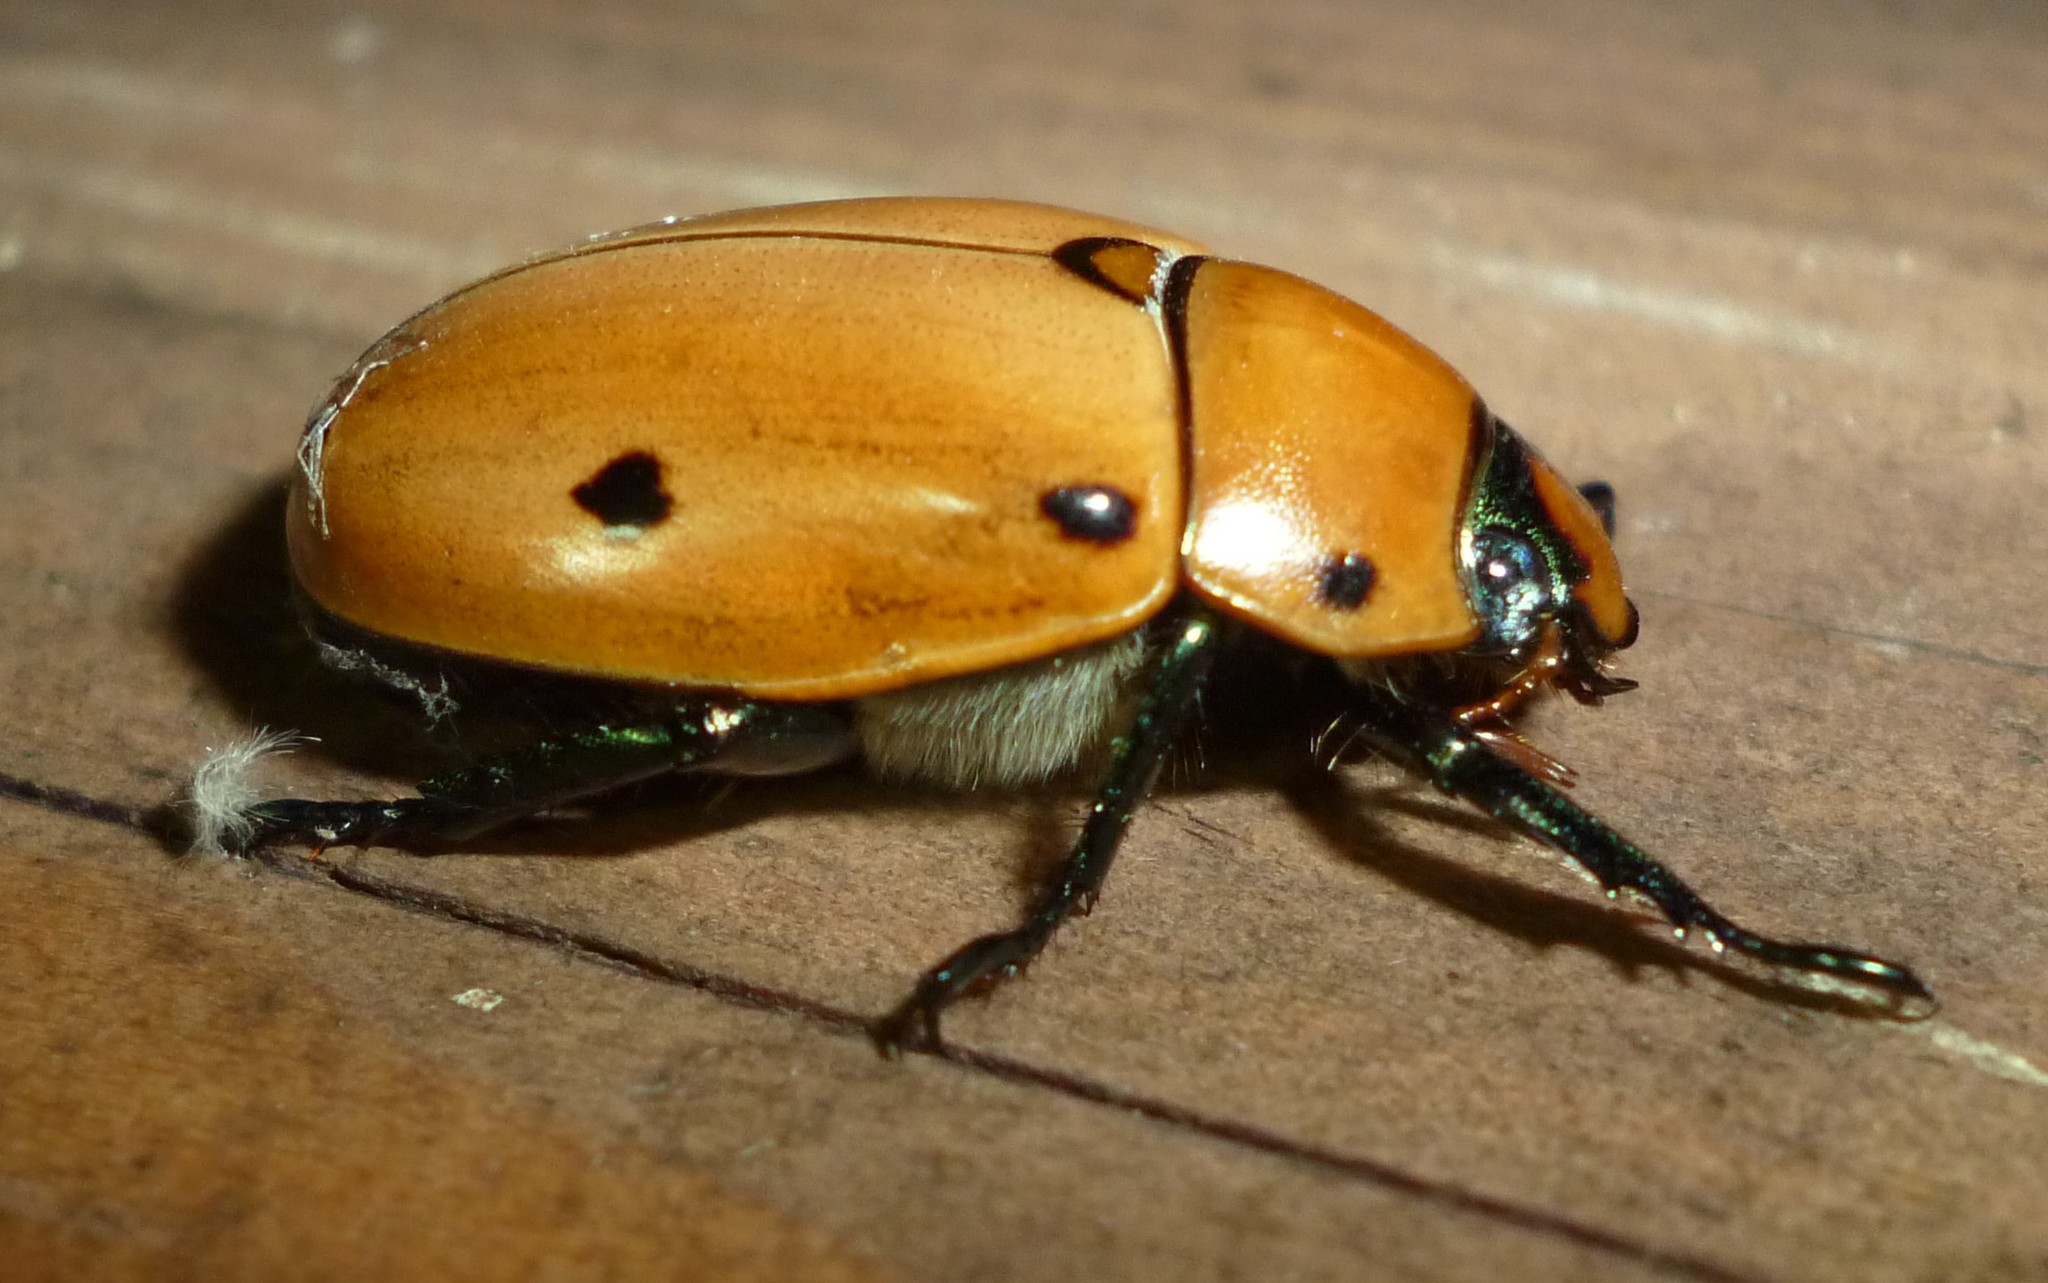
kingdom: Animalia
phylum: Arthropoda
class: Insecta
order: Coleoptera
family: Scarabaeidae
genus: Pelidnota
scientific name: Pelidnota punctata
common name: Grapevine beetle
